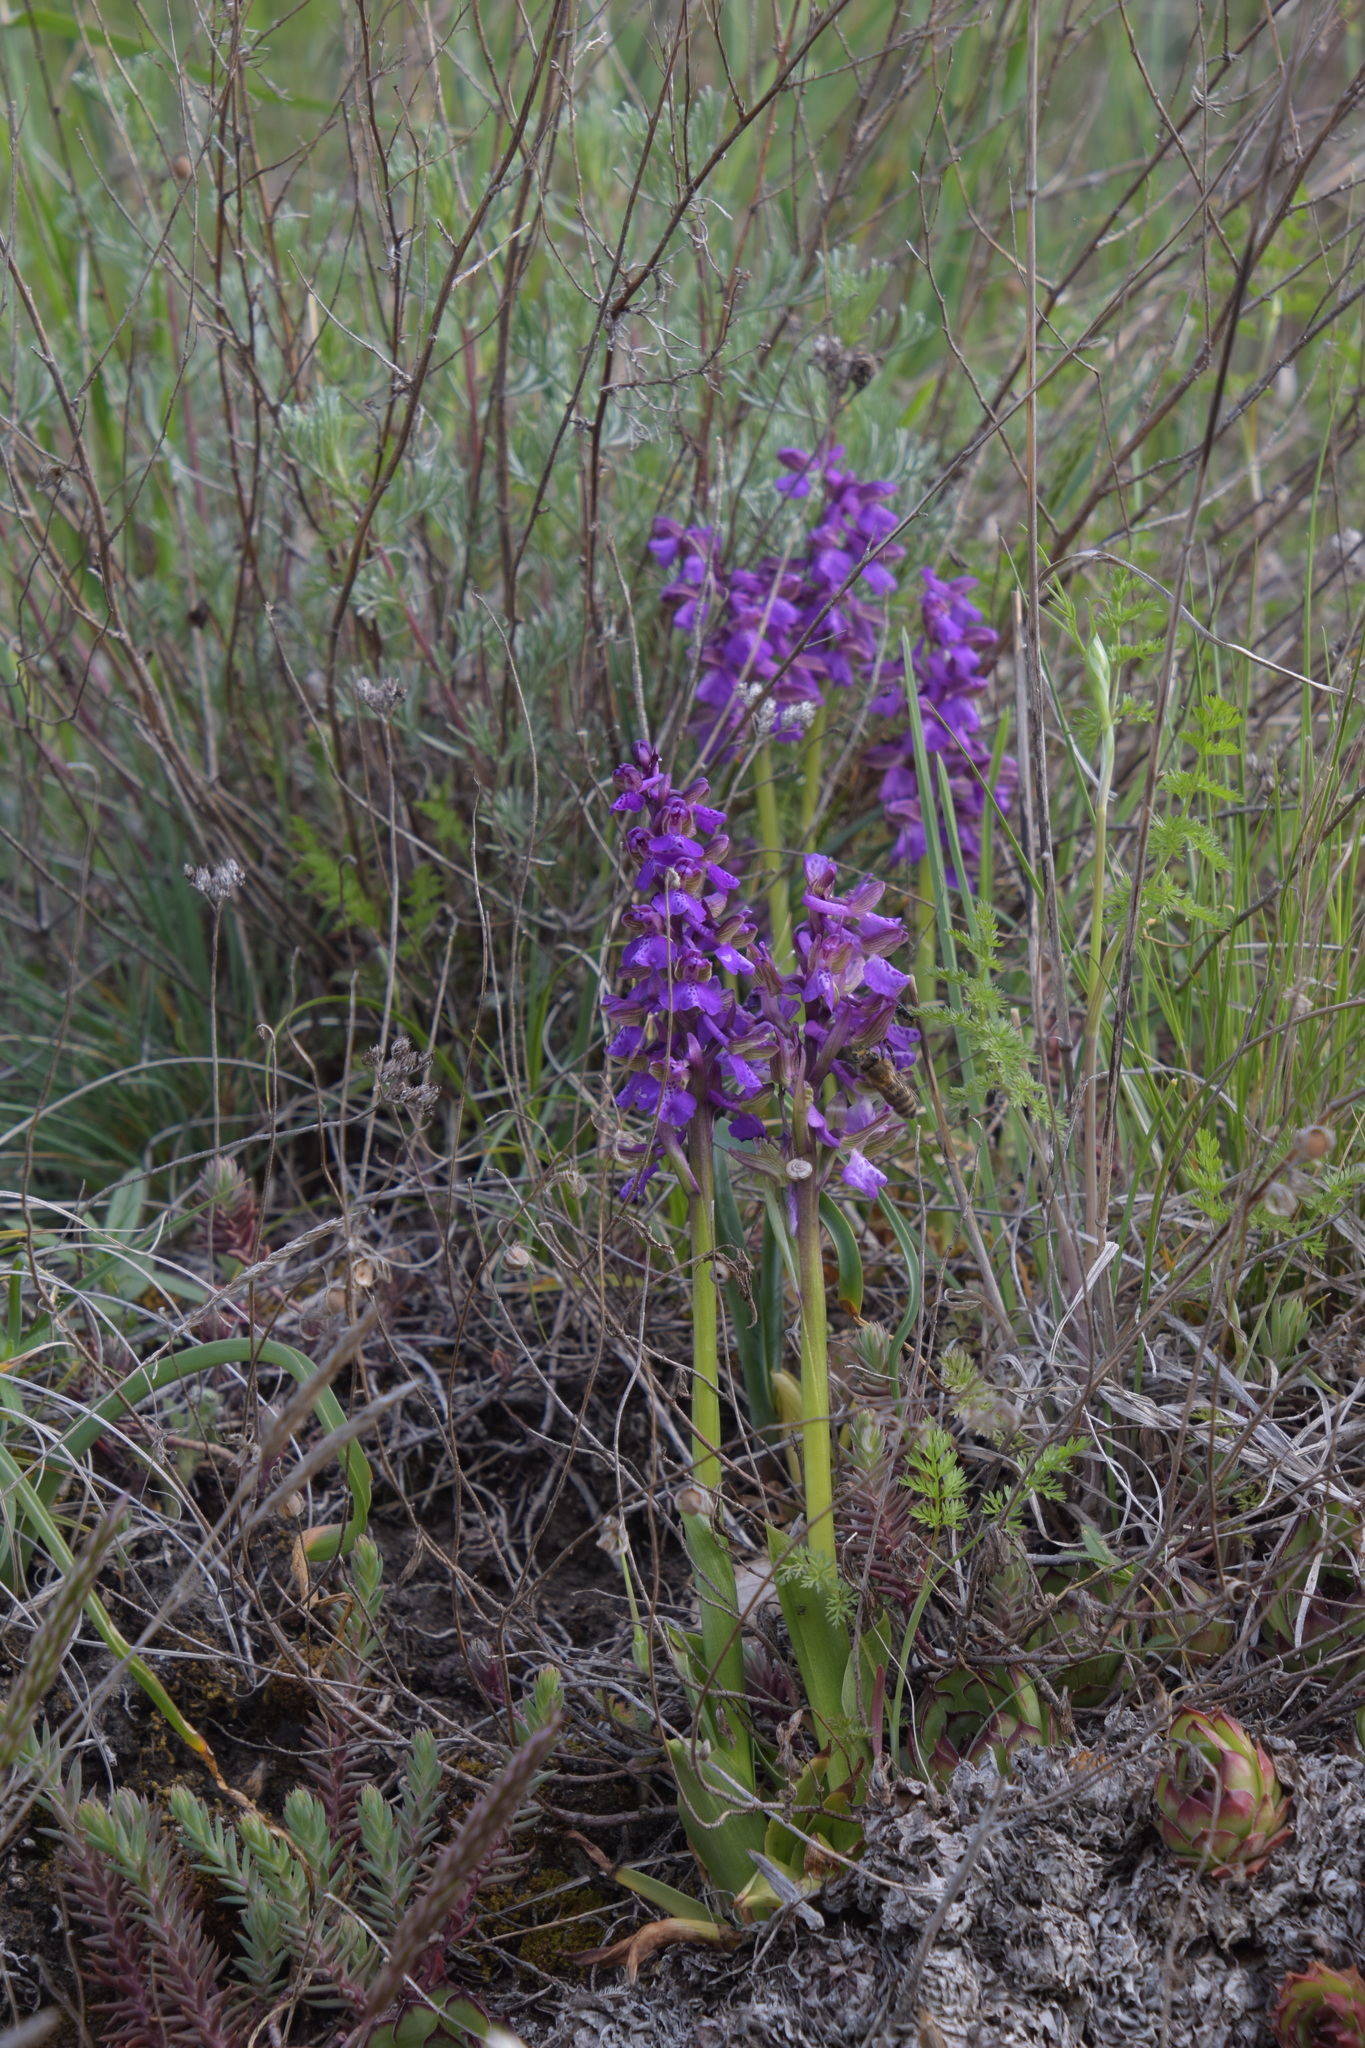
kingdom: Plantae
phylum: Tracheophyta
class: Liliopsida
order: Asparagales
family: Orchidaceae
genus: Anacamptis
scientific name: Anacamptis morio
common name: Green-winged orchid
